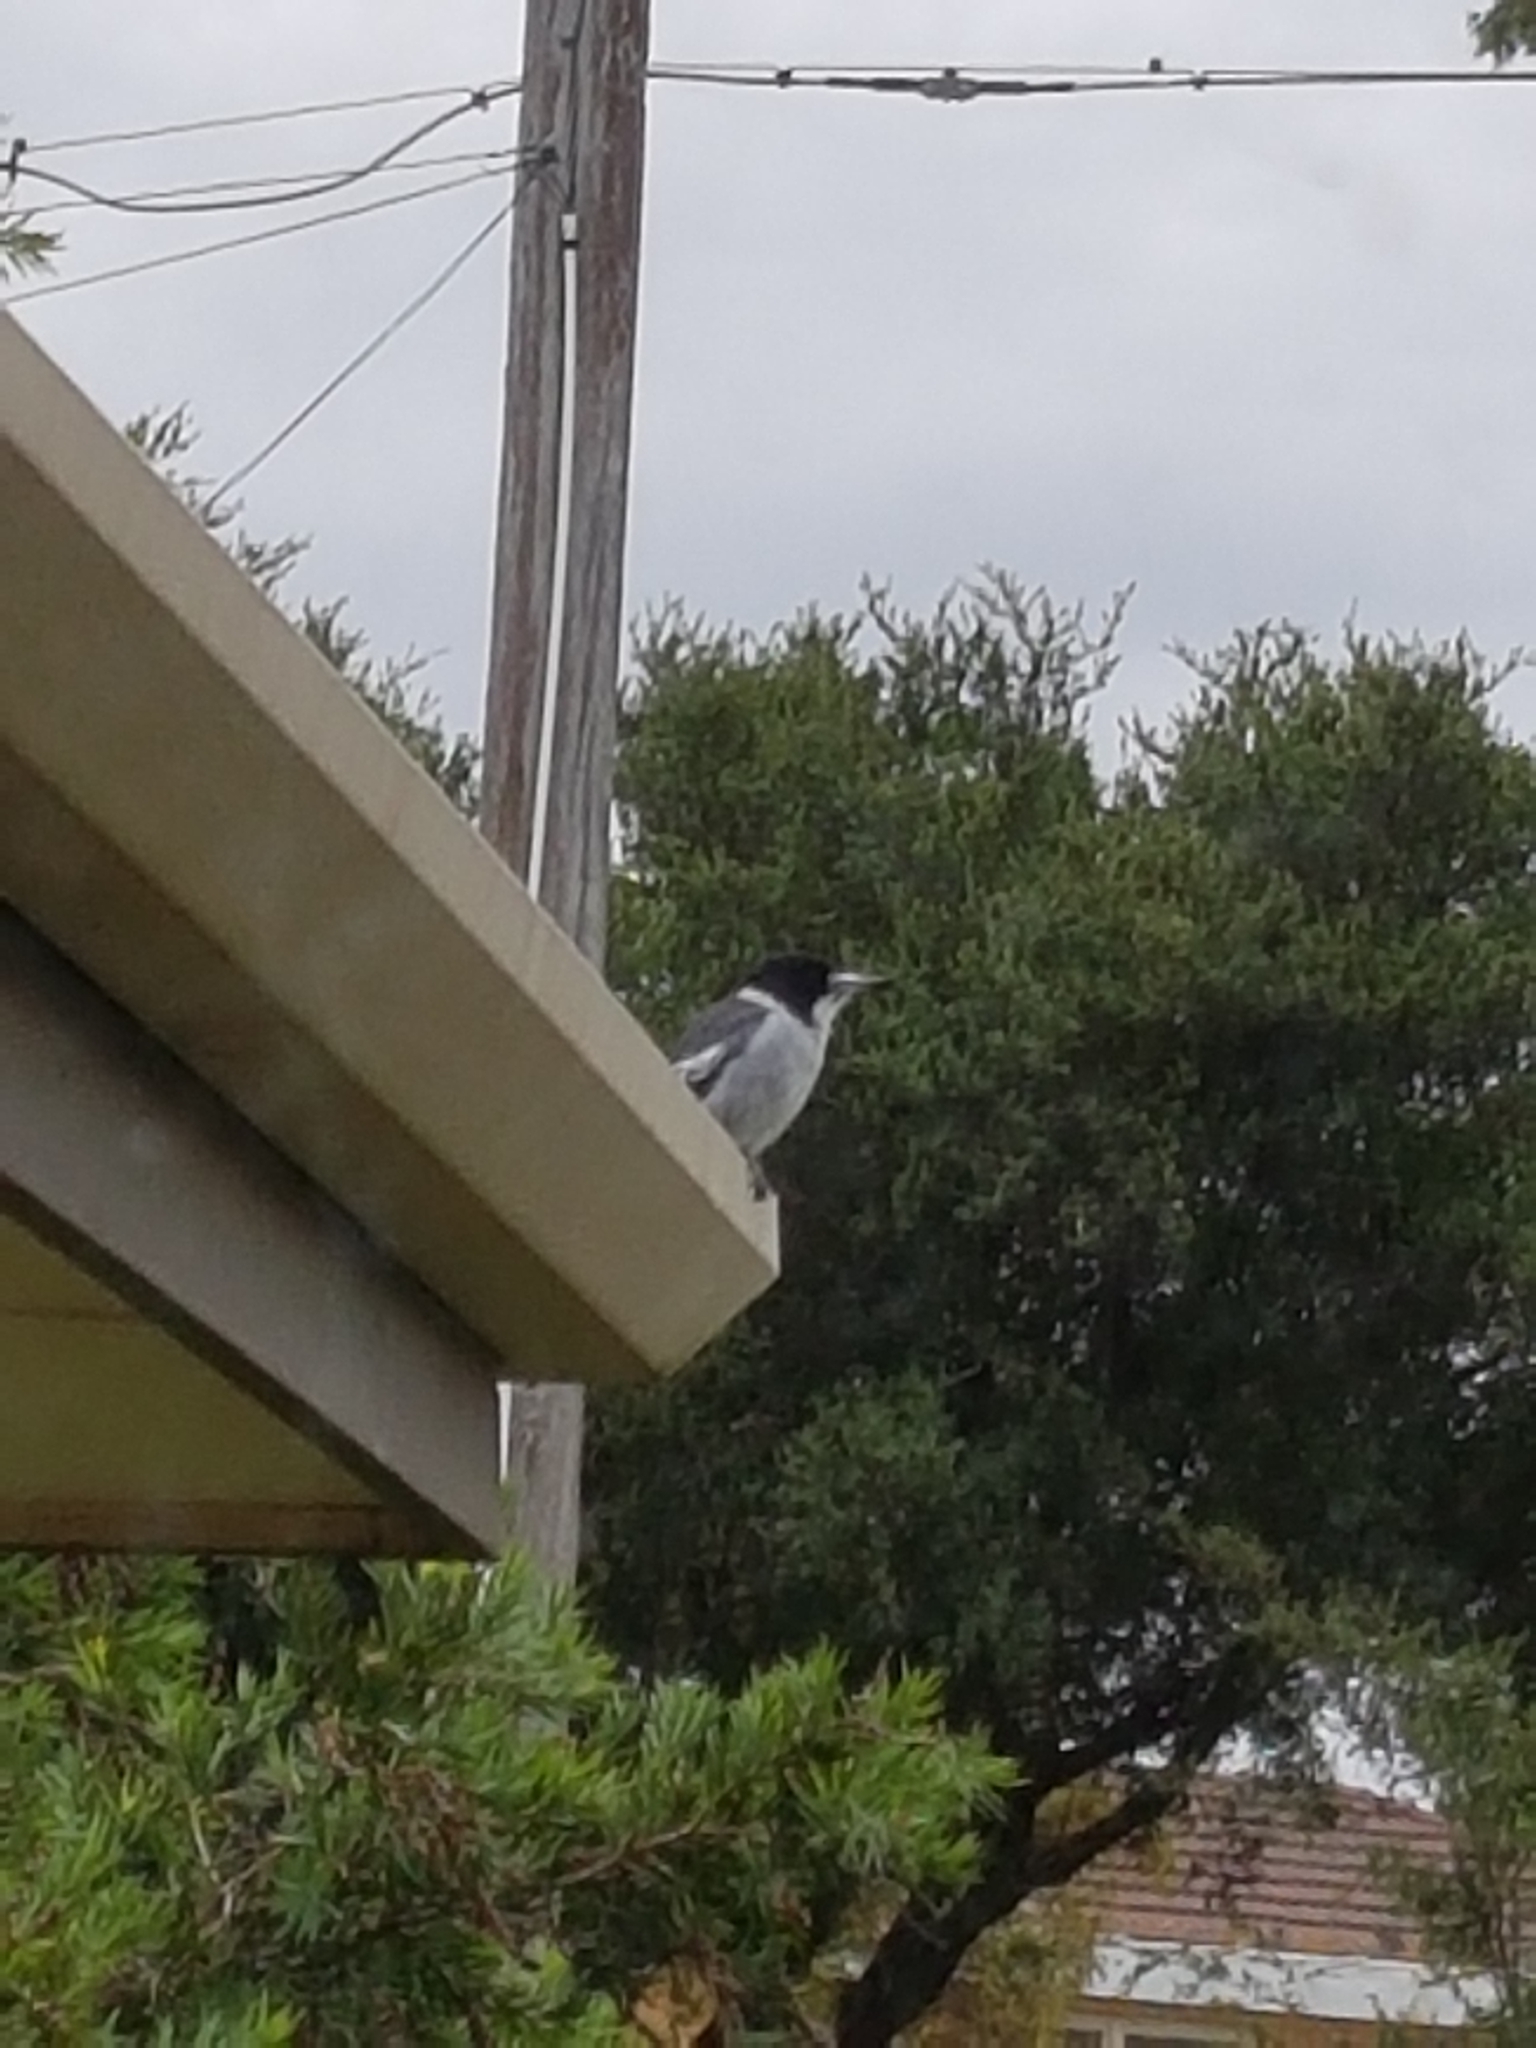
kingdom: Animalia
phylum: Chordata
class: Aves
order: Passeriformes
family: Cracticidae
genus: Cracticus
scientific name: Cracticus torquatus
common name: Grey butcherbird
